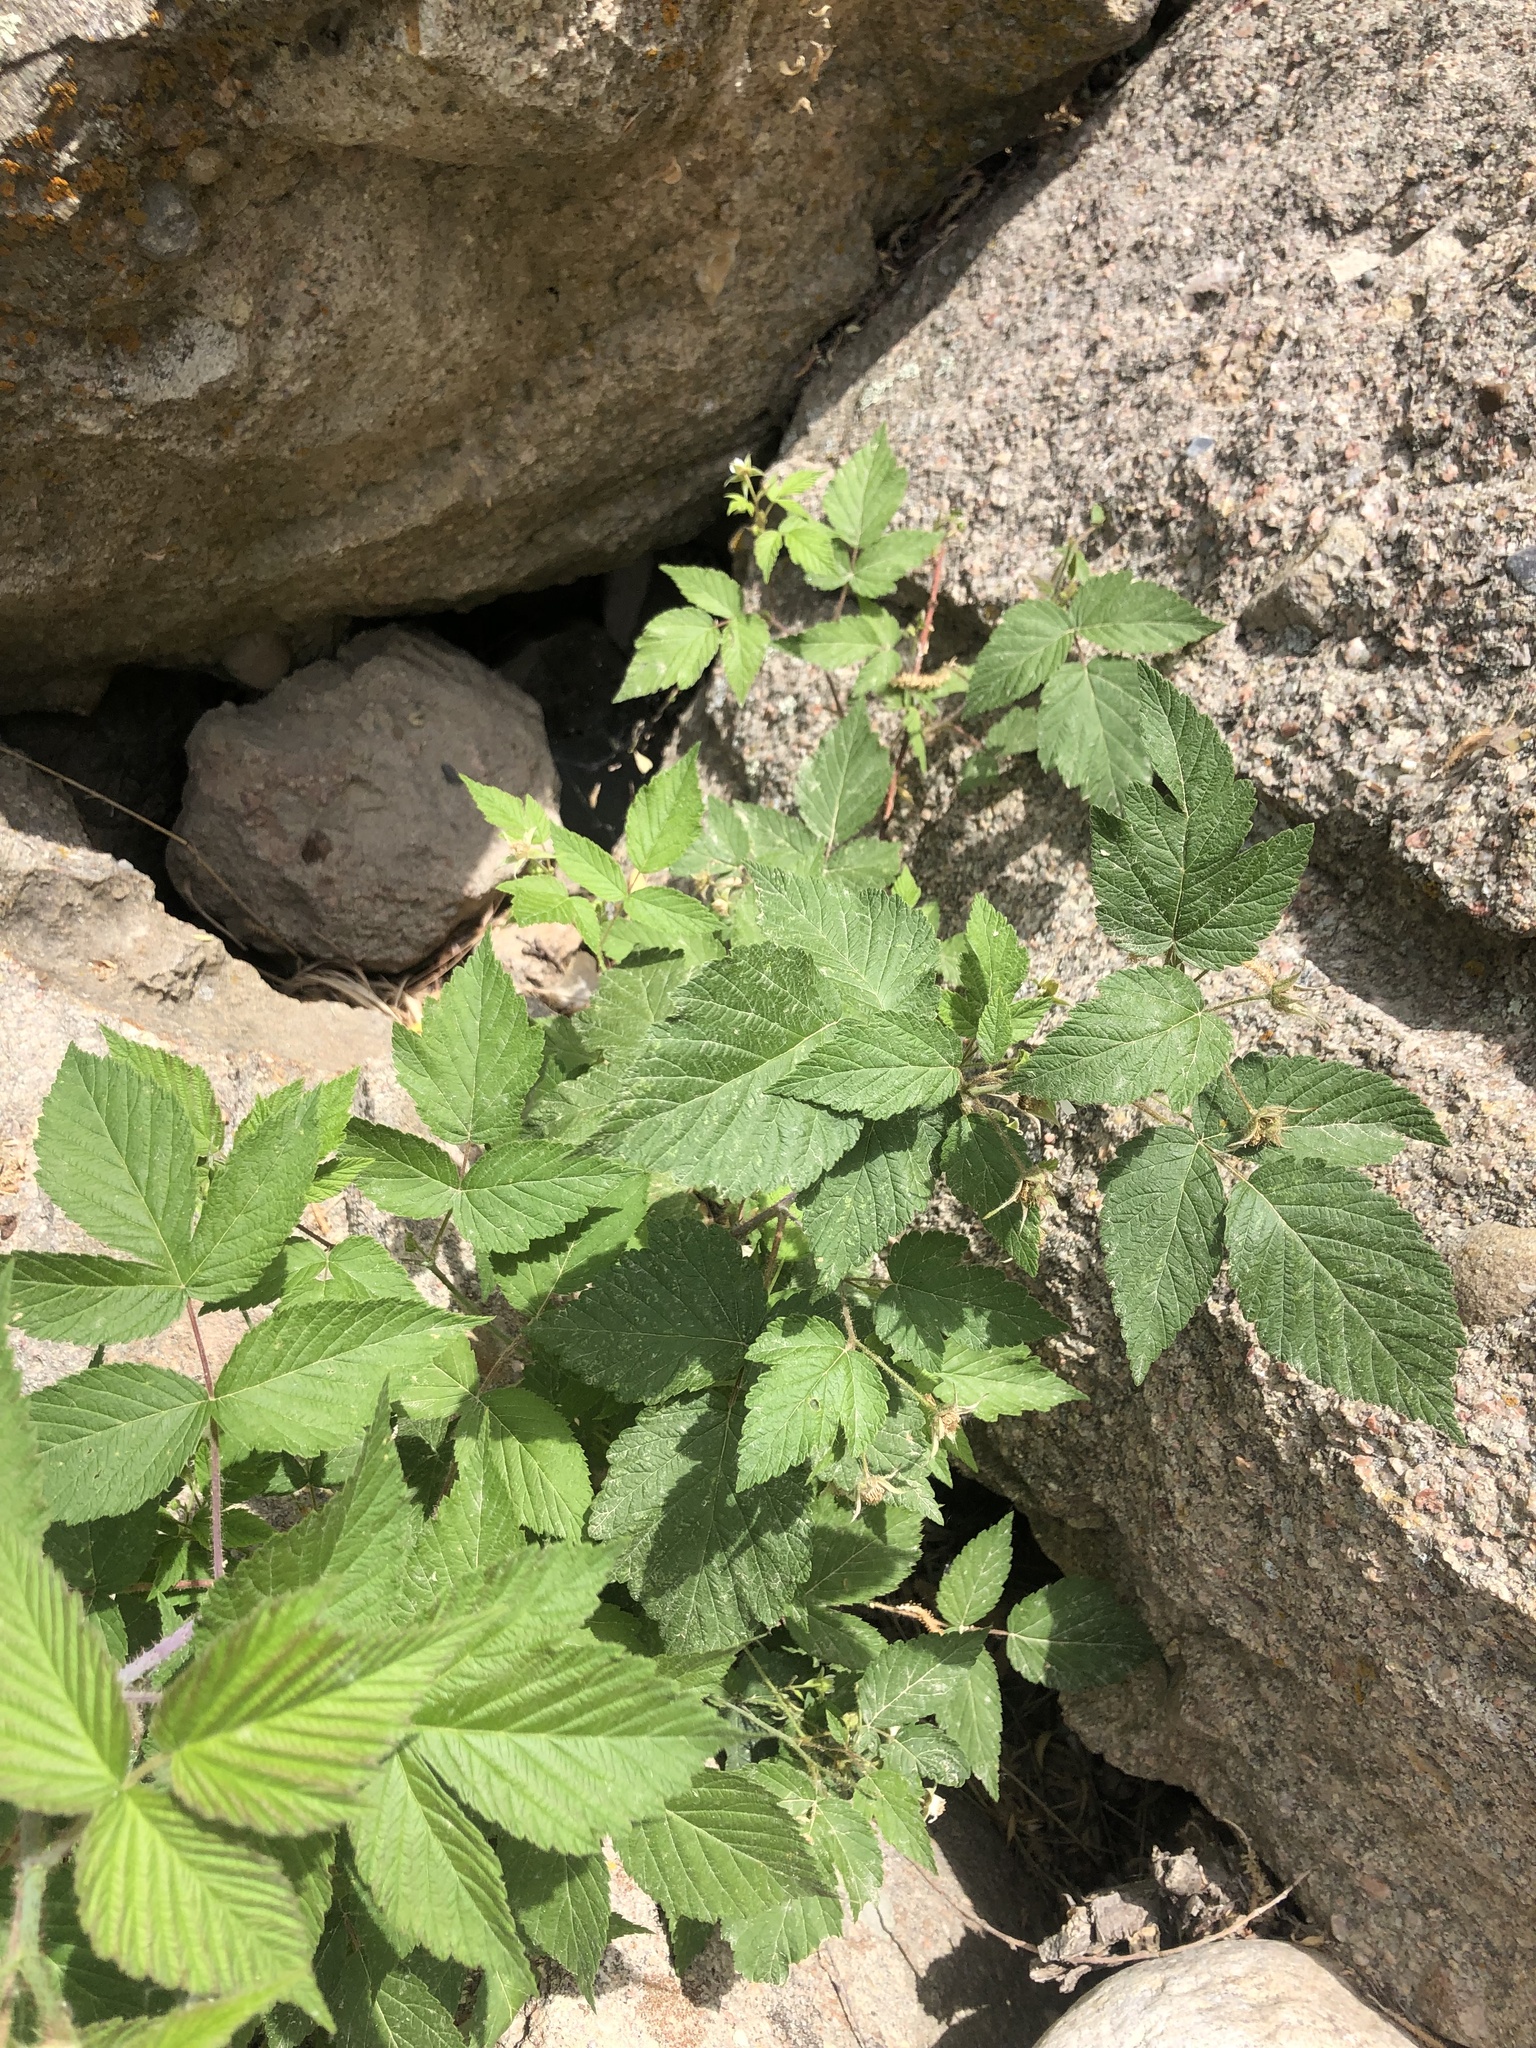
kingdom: Plantae
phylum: Tracheophyta
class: Magnoliopsida
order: Rosales
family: Rosaceae
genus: Rubus
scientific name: Rubus idaeus
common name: Raspberry
